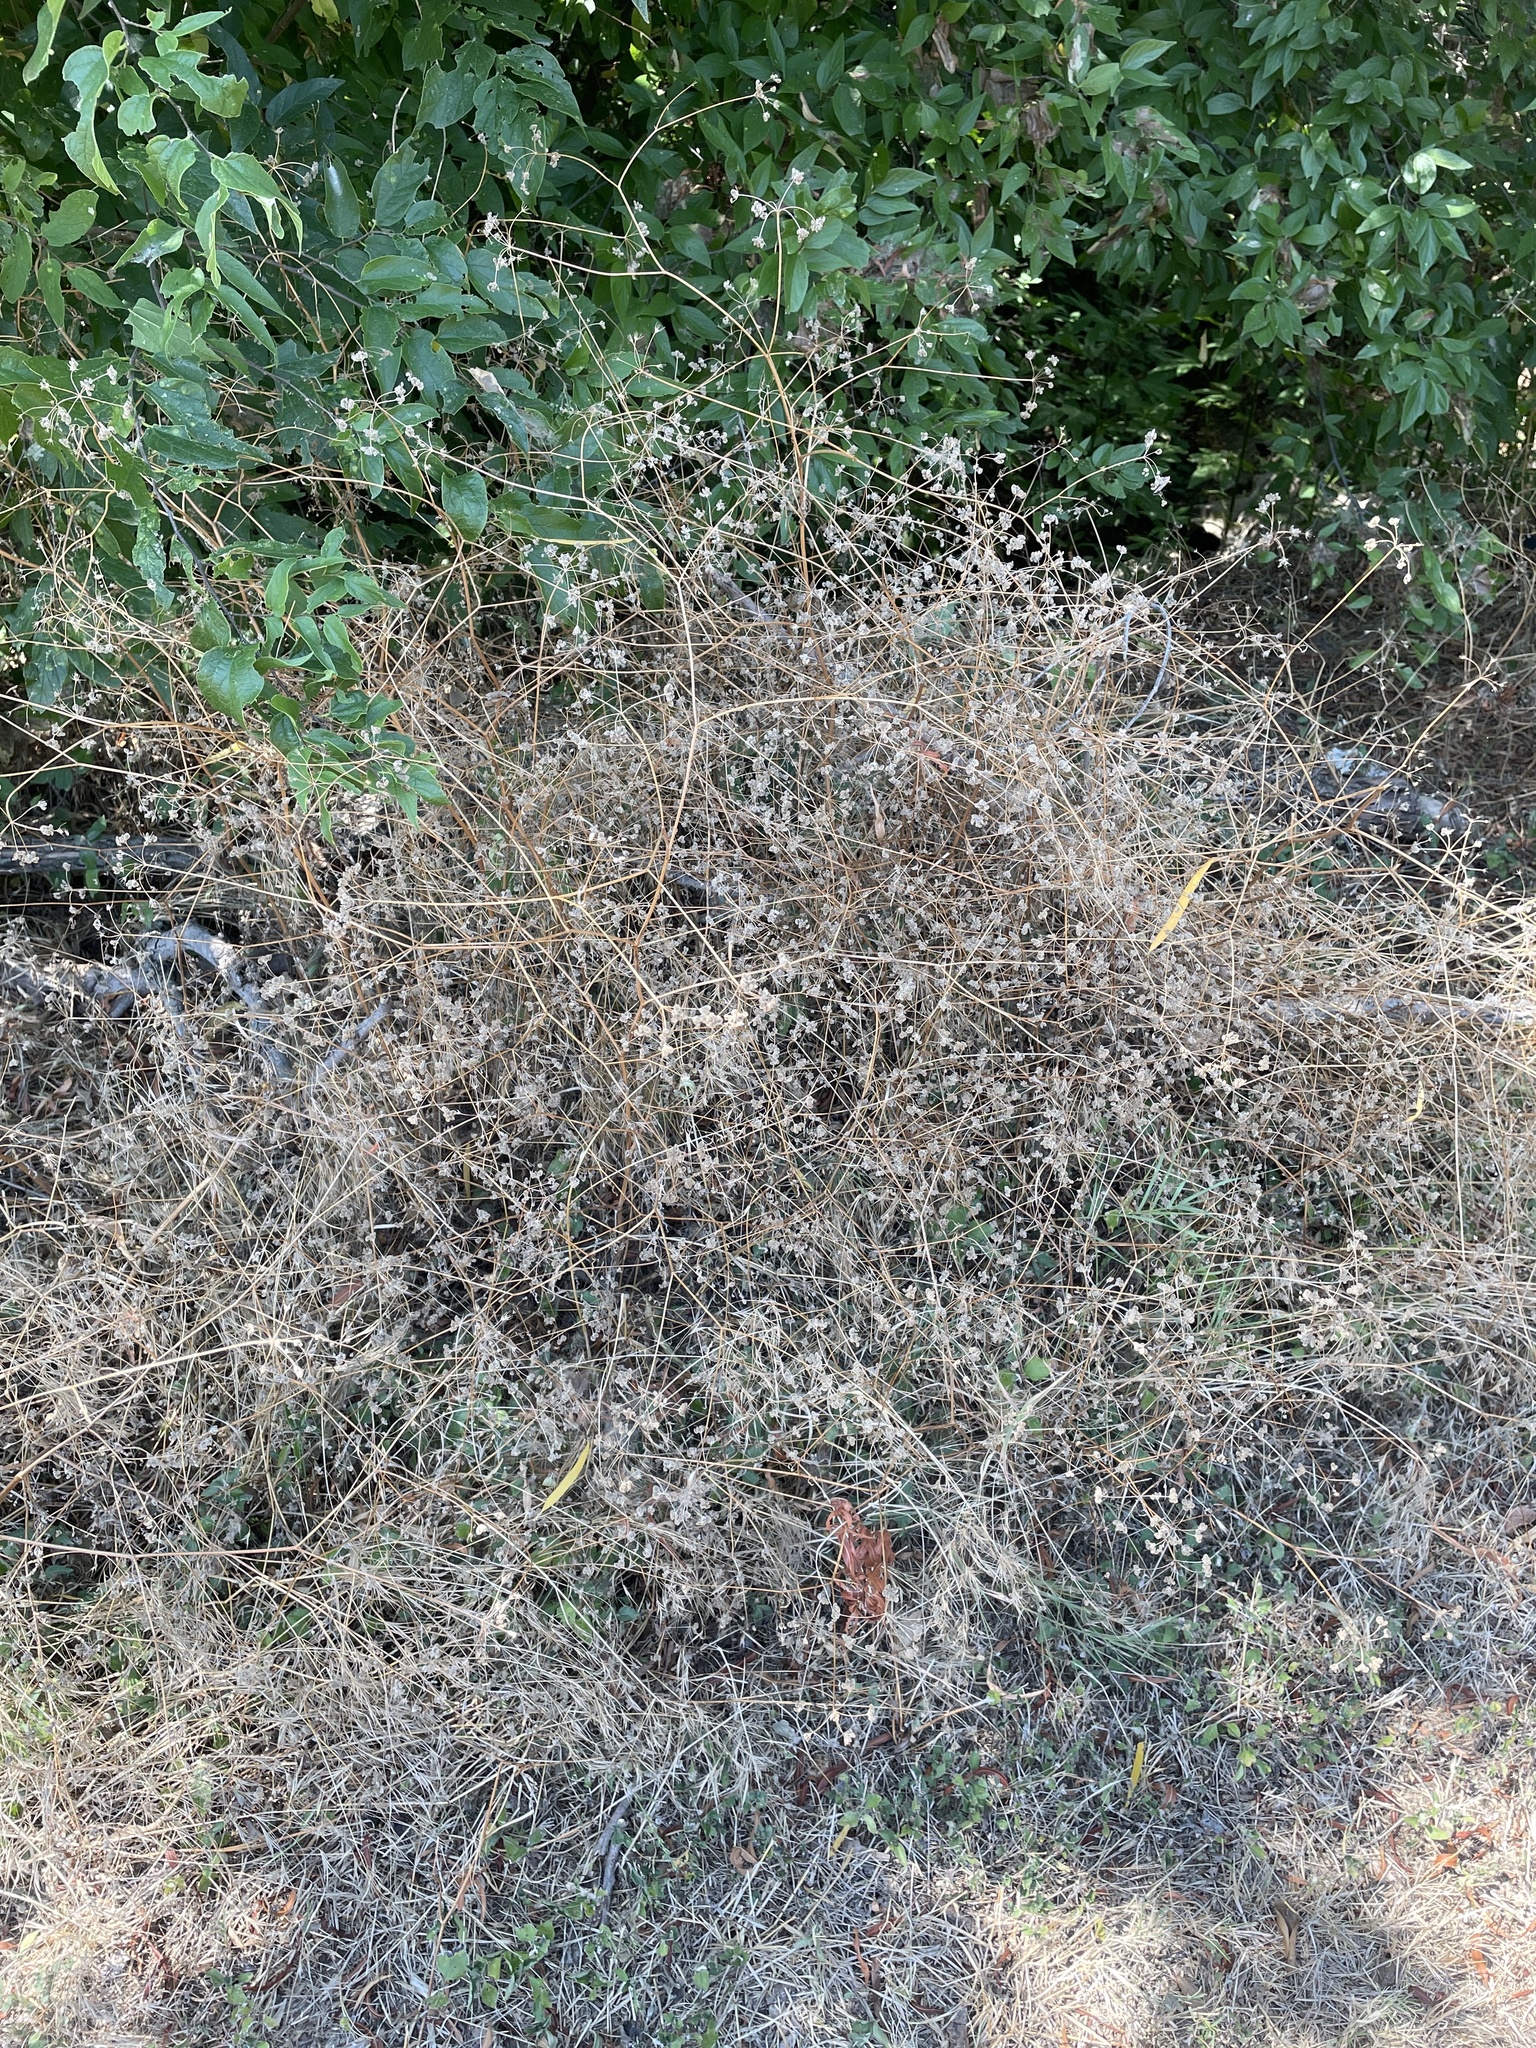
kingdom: Plantae
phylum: Tracheophyta
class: Magnoliopsida
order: Apiales
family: Apiaceae
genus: Torilis
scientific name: Torilis arvensis
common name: Spreading hedge-parsley
